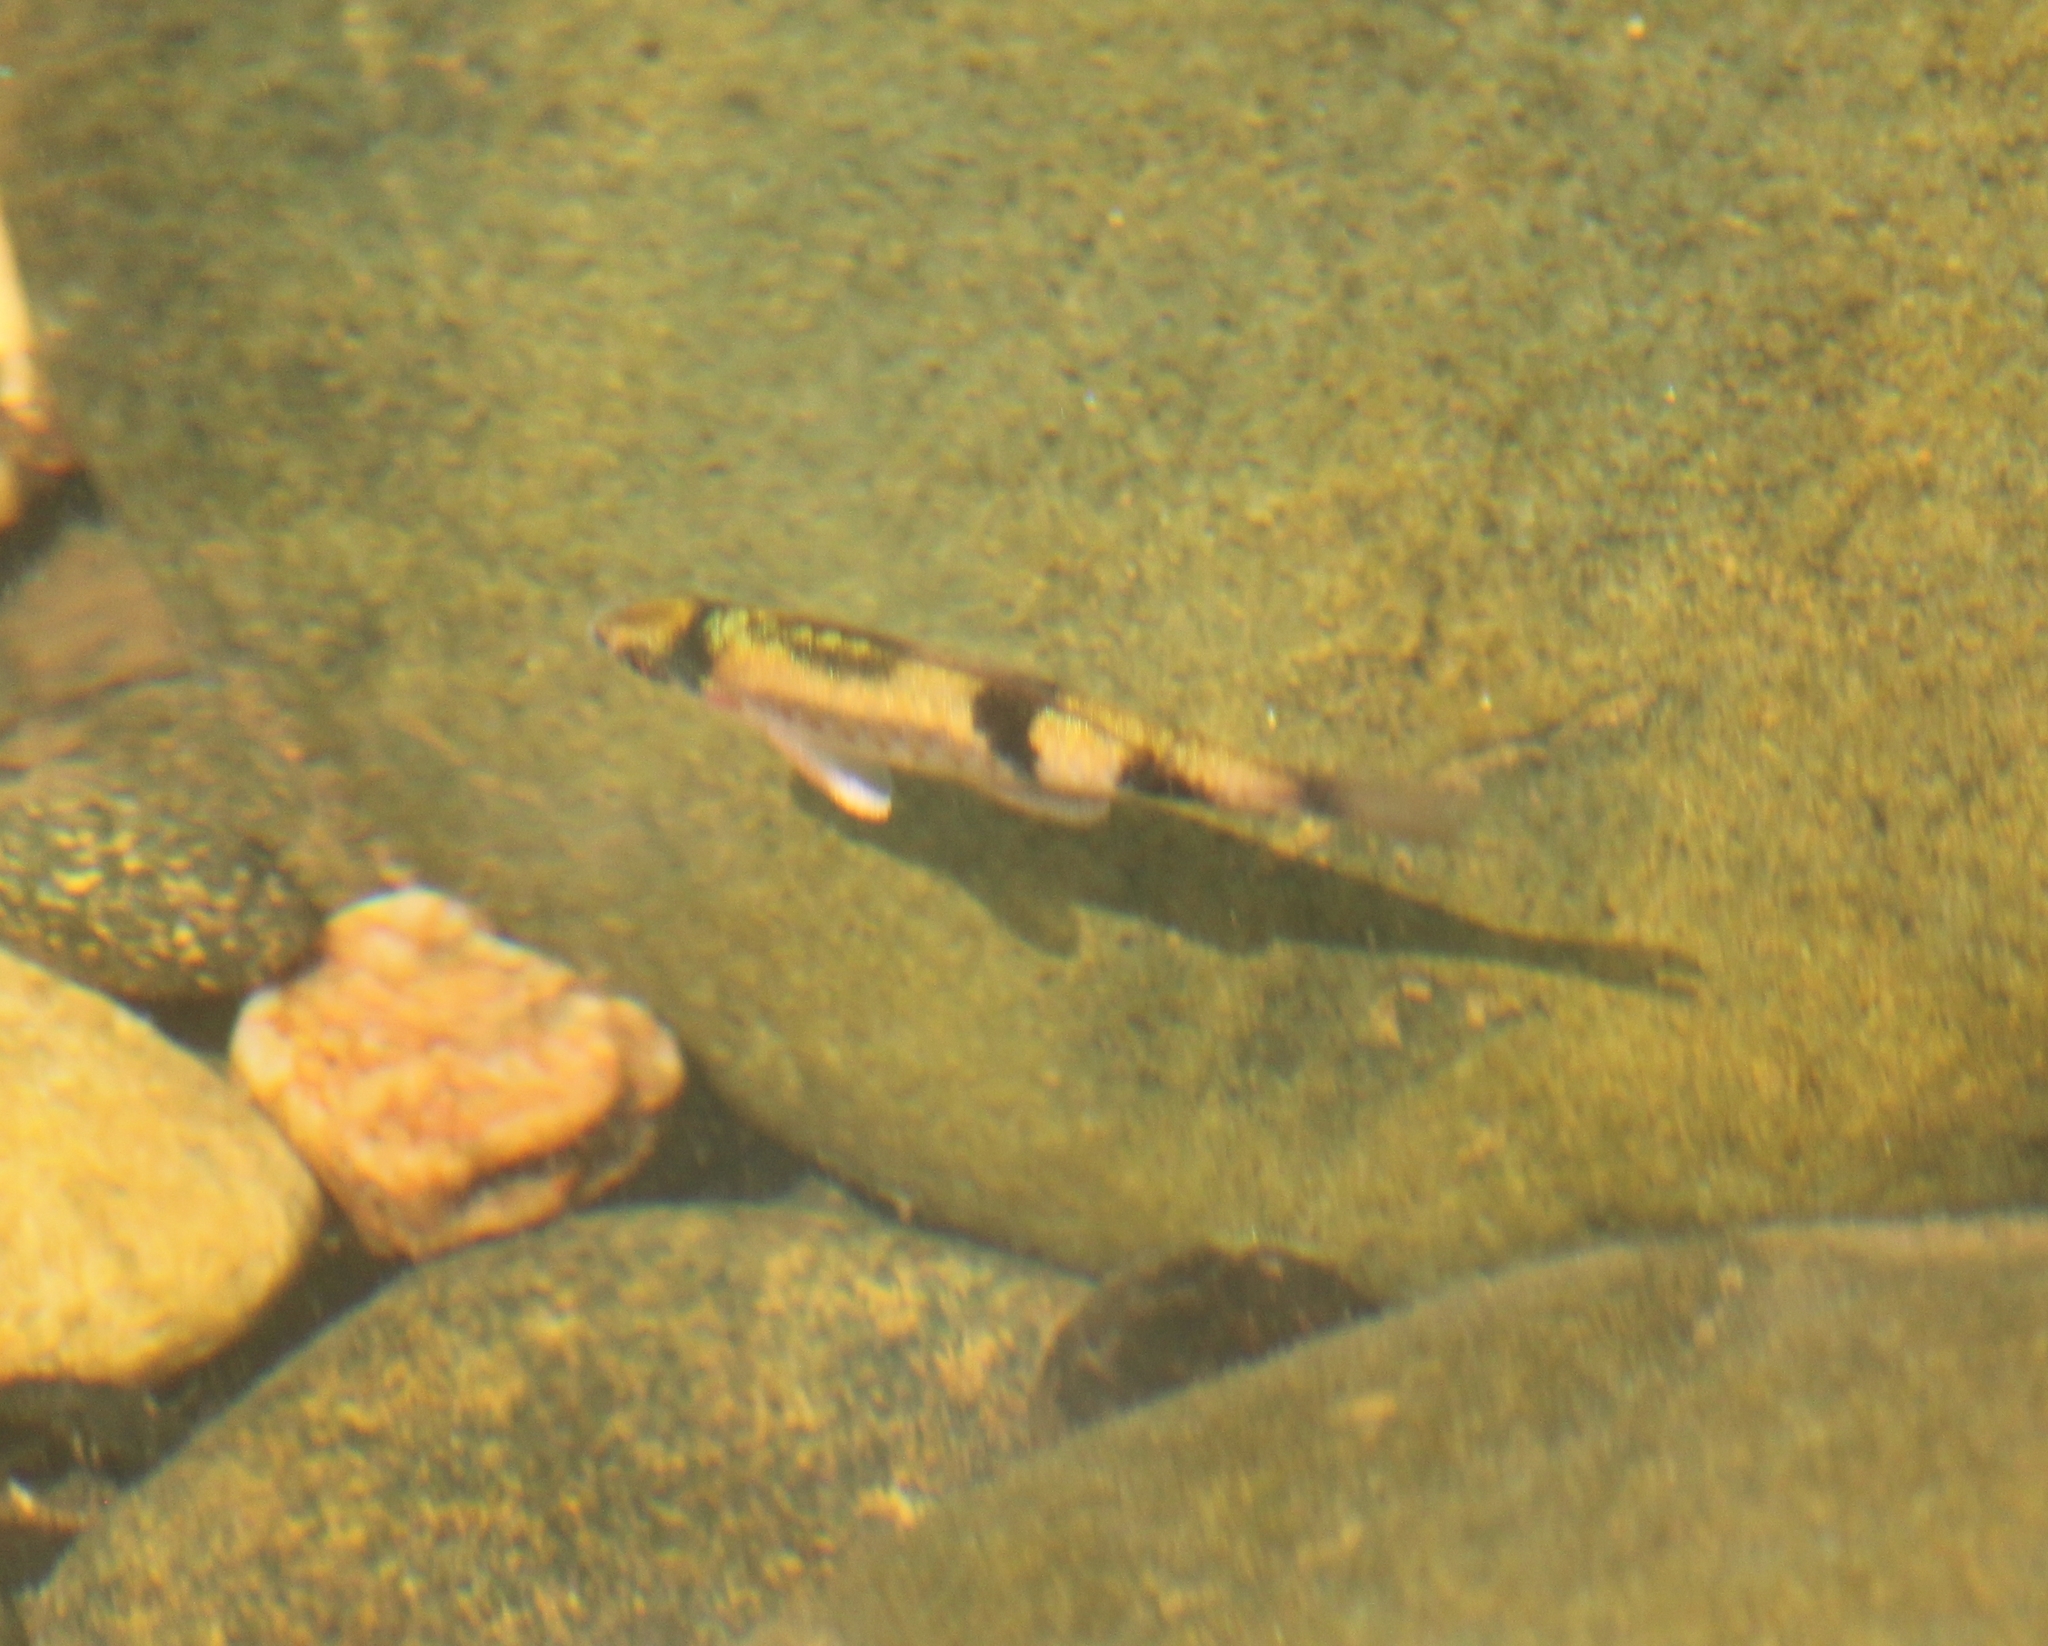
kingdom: Animalia
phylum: Chordata
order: Cypriniformes
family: Cyprinidae
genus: Haludaria
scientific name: Haludaria fasciata
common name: Melon barb
